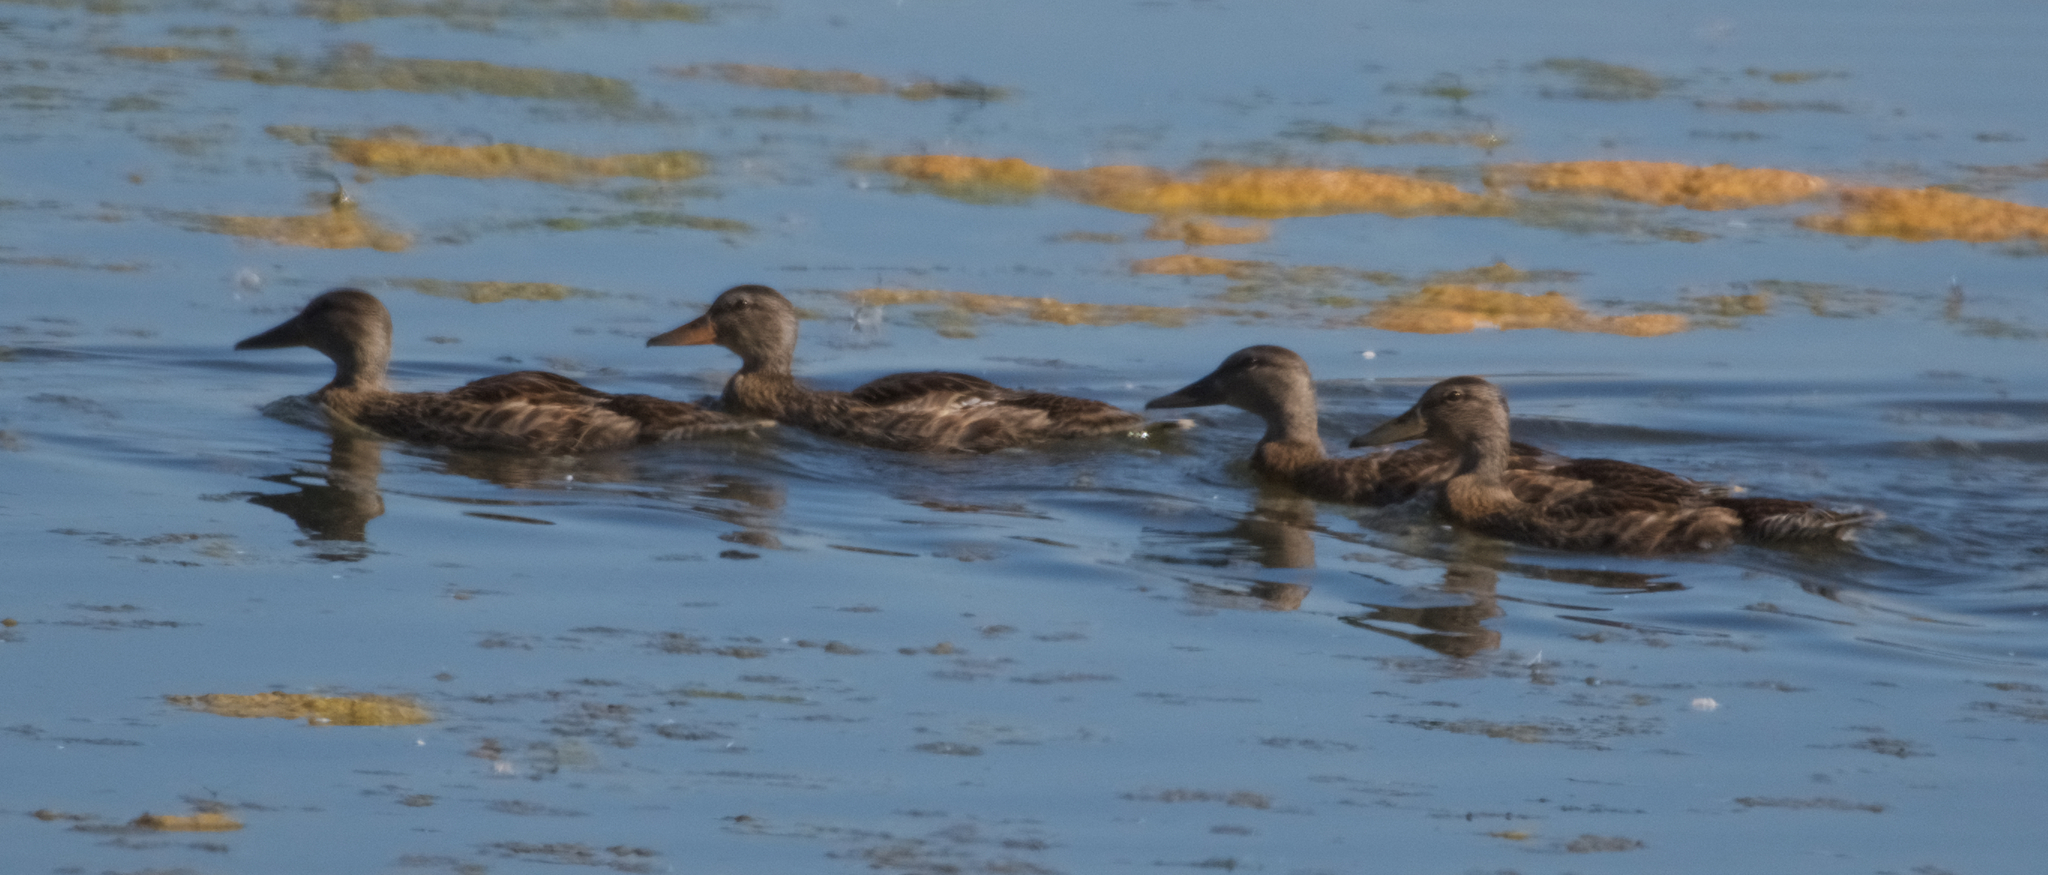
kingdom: Animalia
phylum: Chordata
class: Aves
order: Anseriformes
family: Anatidae
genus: Anas
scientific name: Anas platyrhynchos
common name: Mallard
